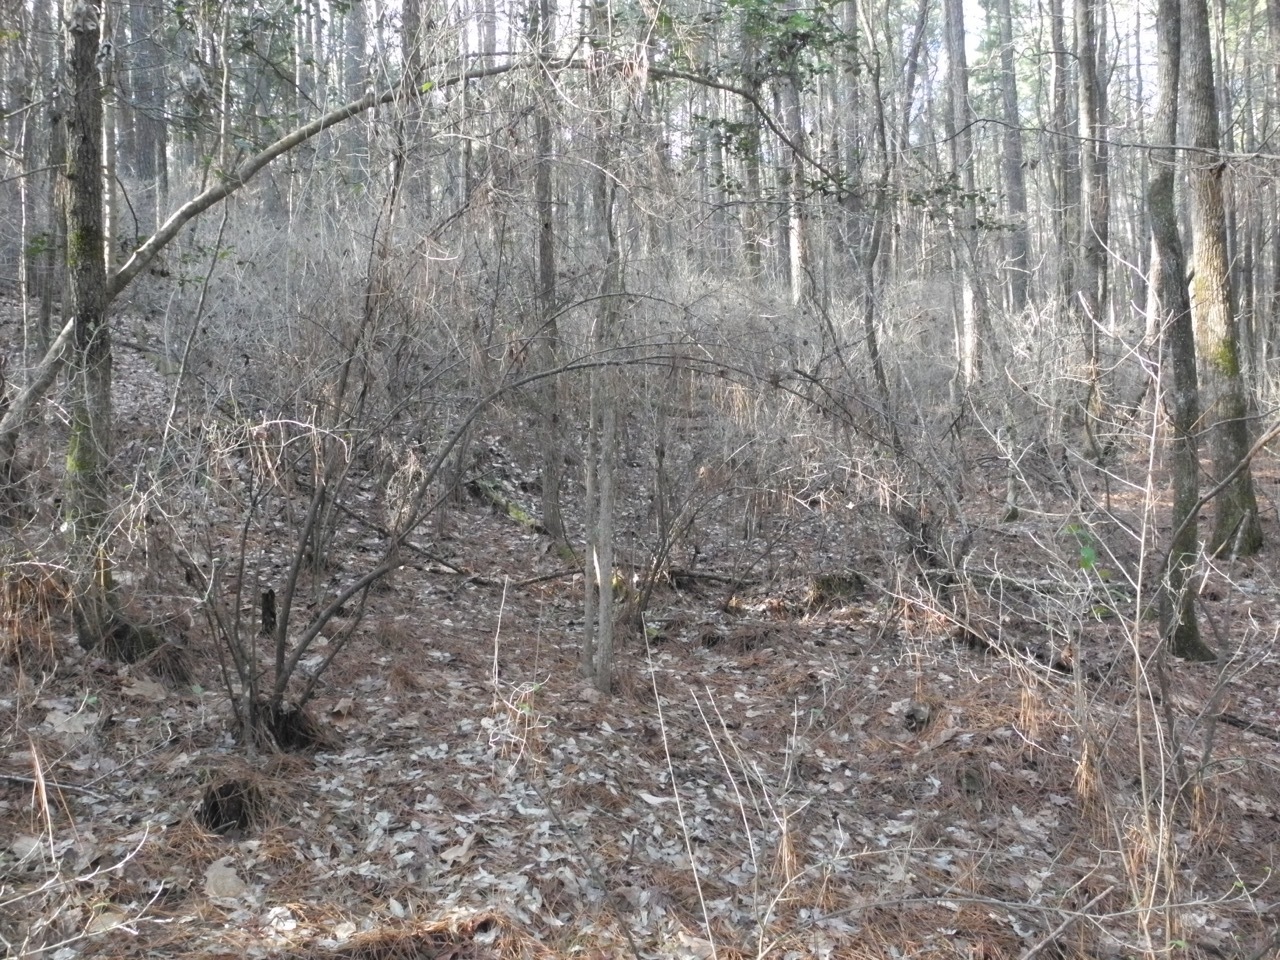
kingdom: Plantae
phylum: Tracheophyta
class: Magnoliopsida
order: Rosales
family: Elaeagnaceae
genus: Elaeagnus
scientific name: Elaeagnus umbellata
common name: Autumn olive
